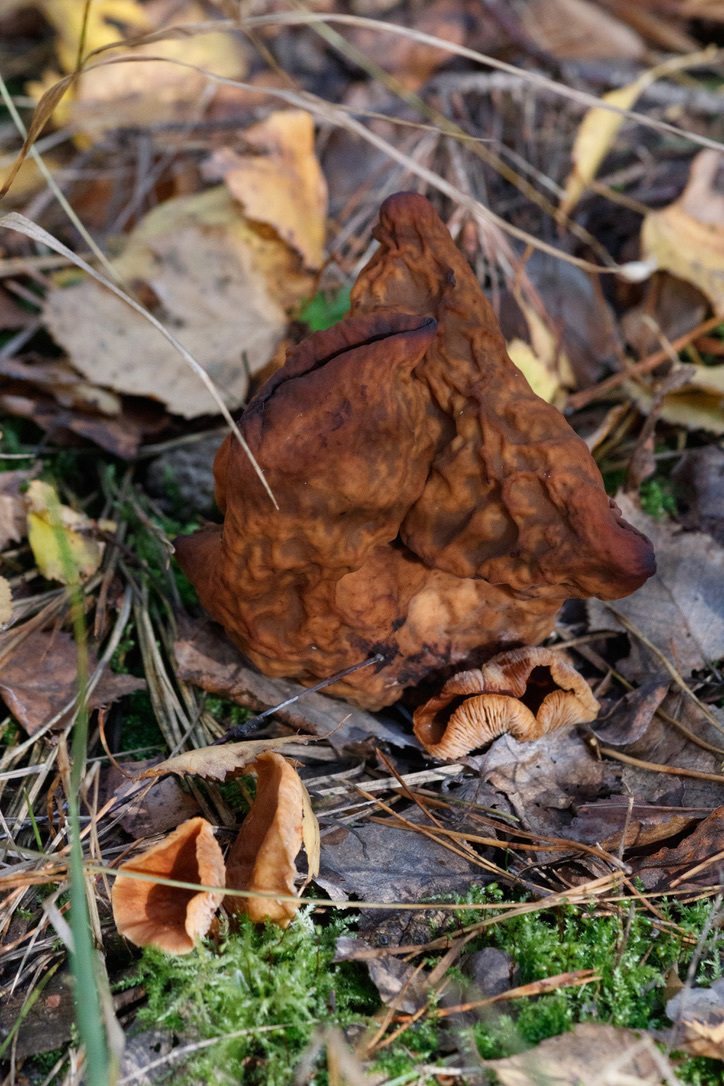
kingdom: Fungi
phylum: Ascomycota
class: Pezizomycetes
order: Pezizales
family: Discinaceae
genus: Gyromitra
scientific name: Gyromitra infula
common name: Pouched false morel
